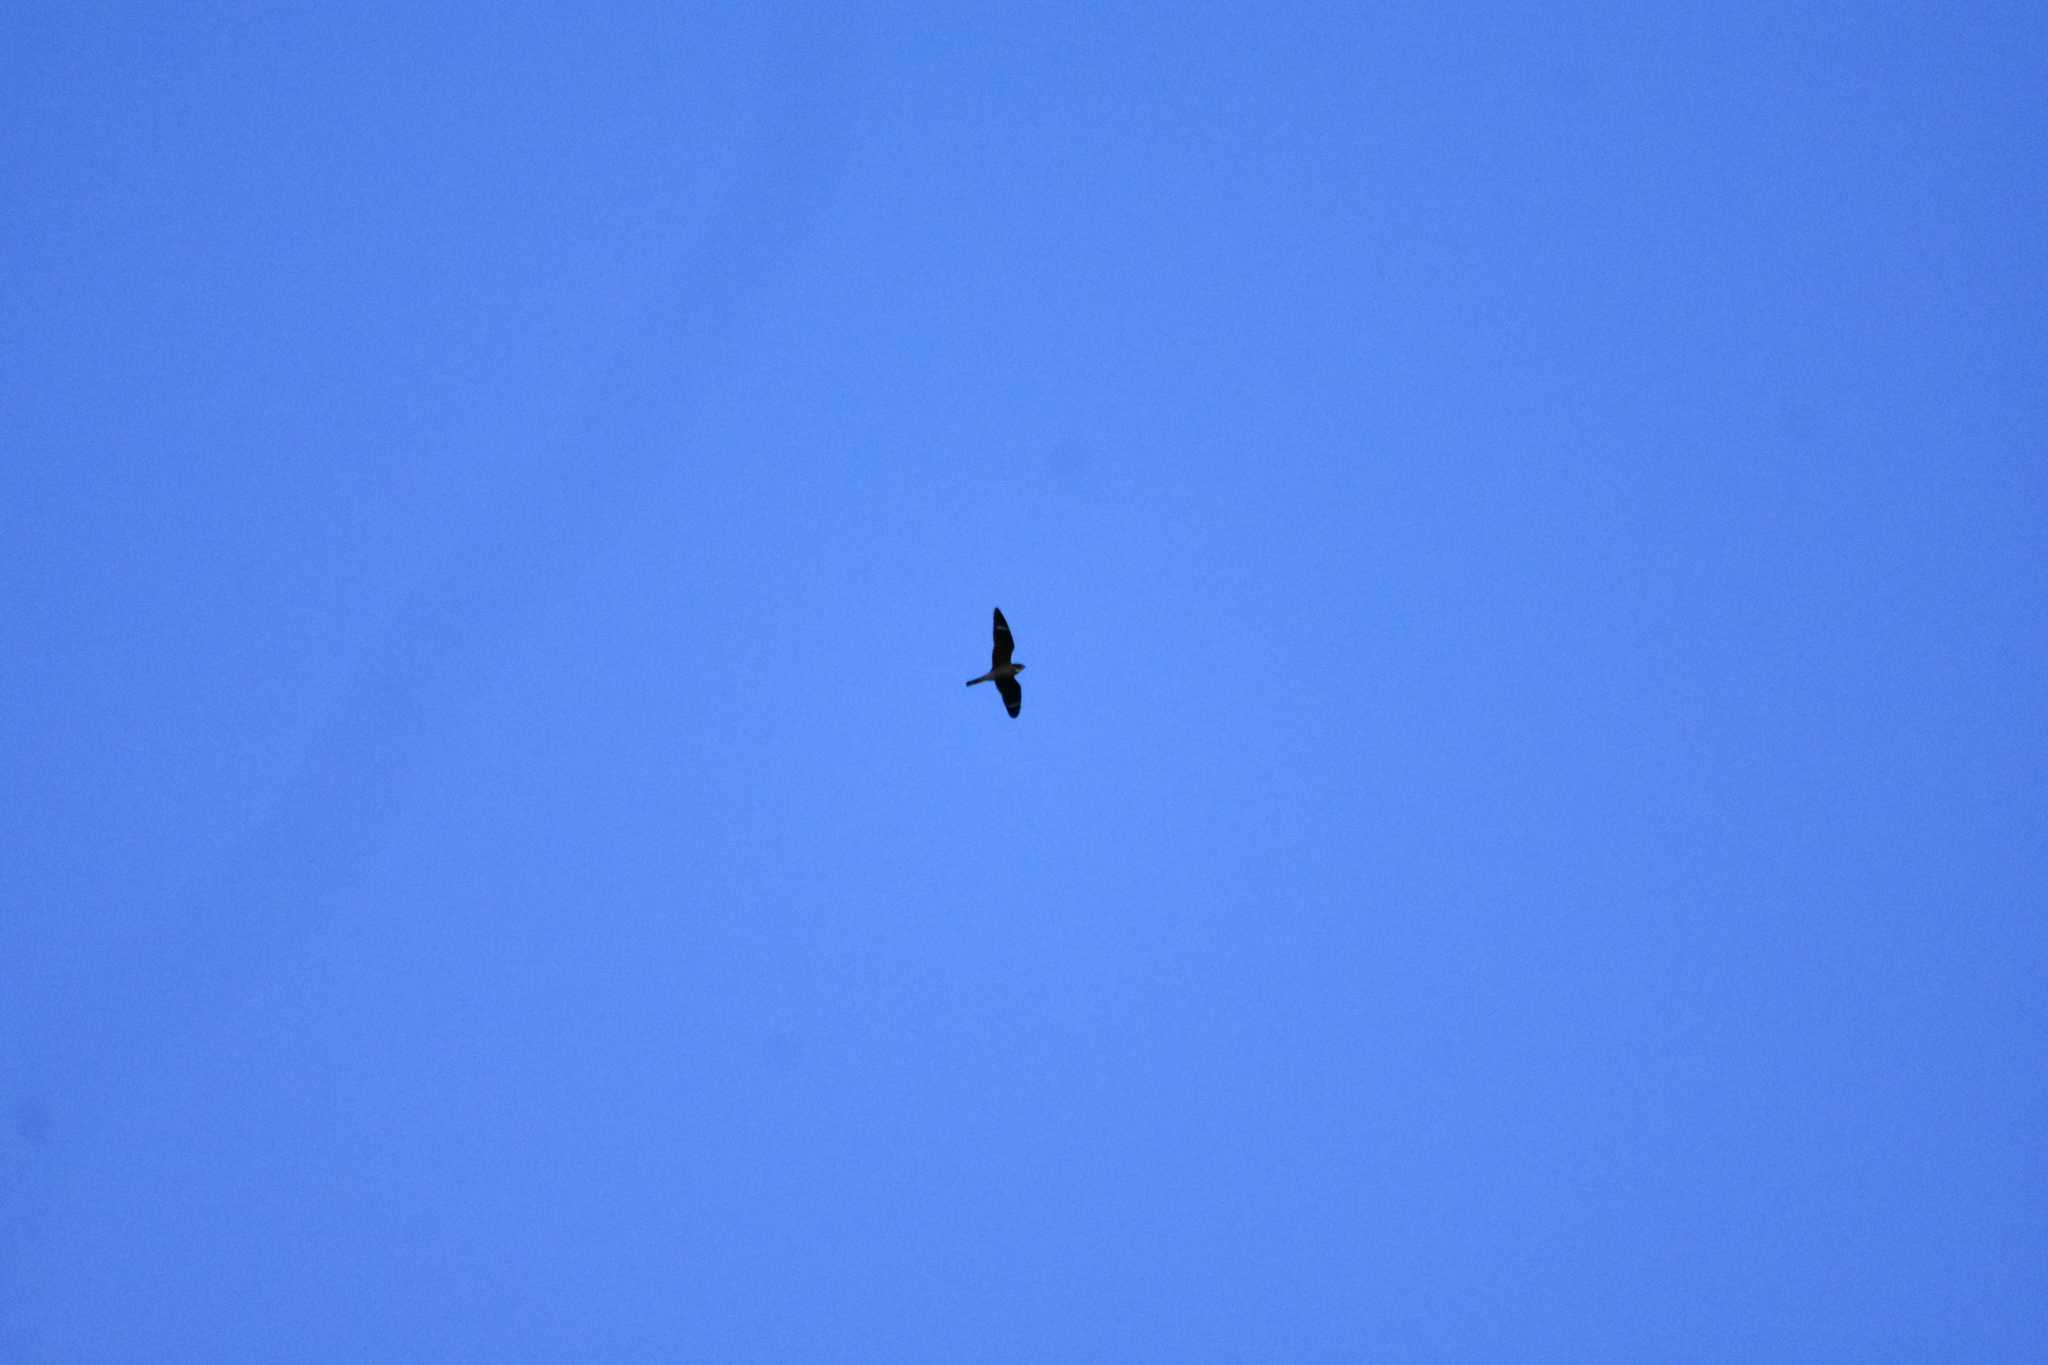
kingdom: Animalia
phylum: Chordata
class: Aves
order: Caprimulgiformes
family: Caprimulgidae
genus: Chordeiles
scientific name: Chordeiles minor
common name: Common nighthawk
